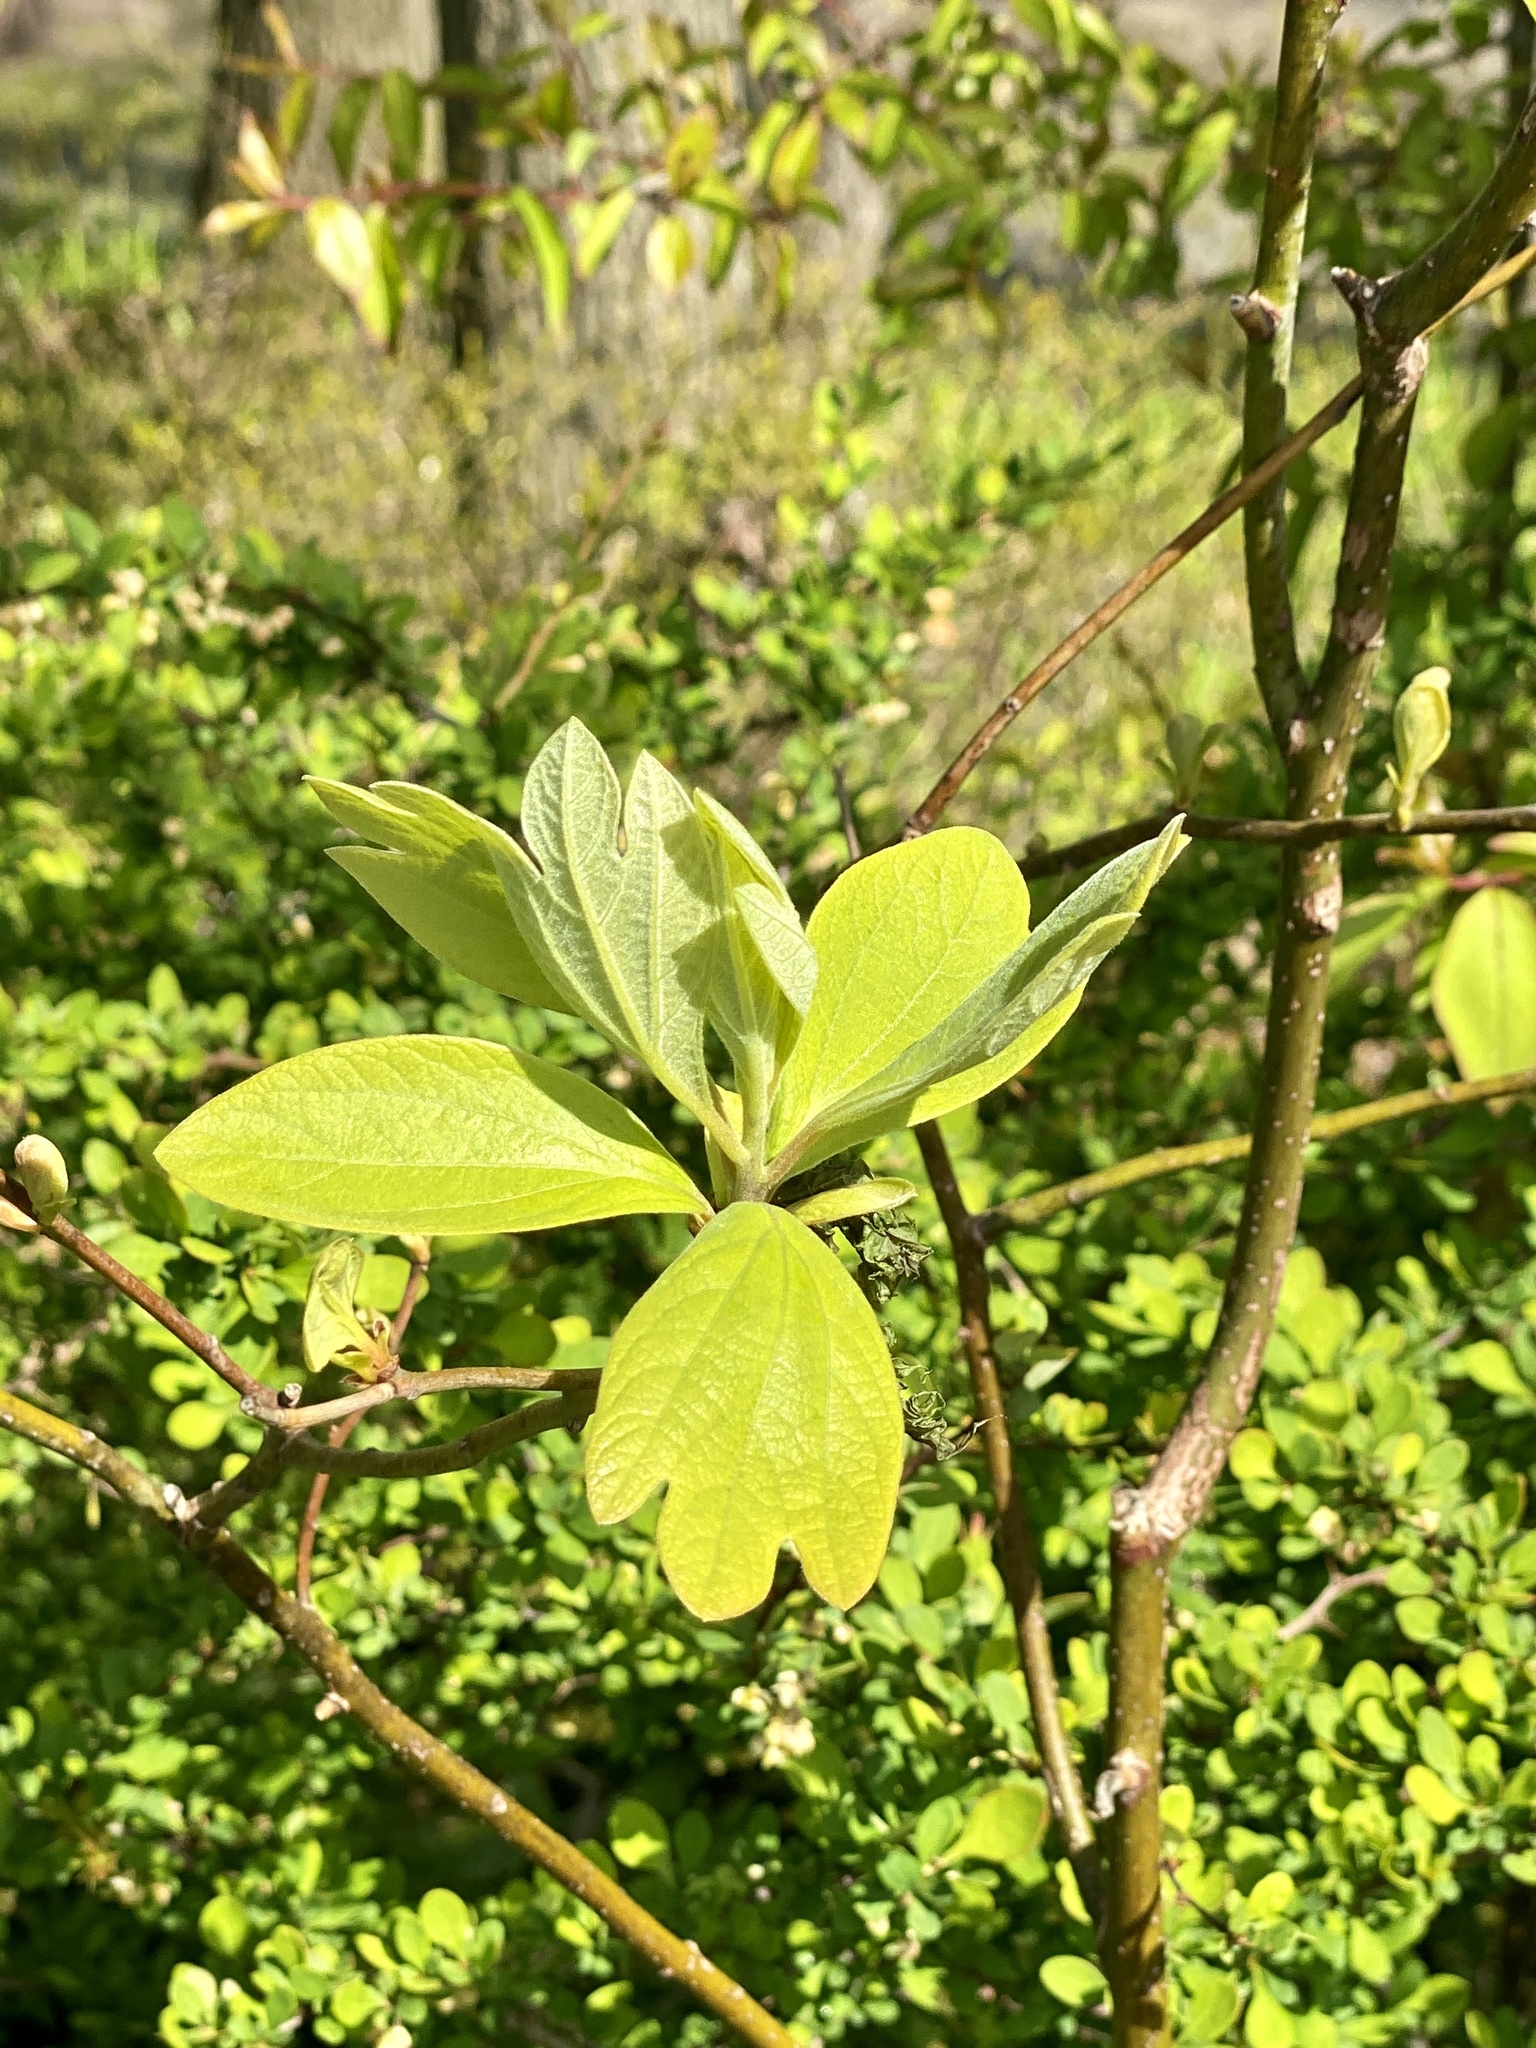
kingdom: Plantae
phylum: Tracheophyta
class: Magnoliopsida
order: Laurales
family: Lauraceae
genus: Sassafras
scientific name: Sassafras albidum
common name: Sassafras
